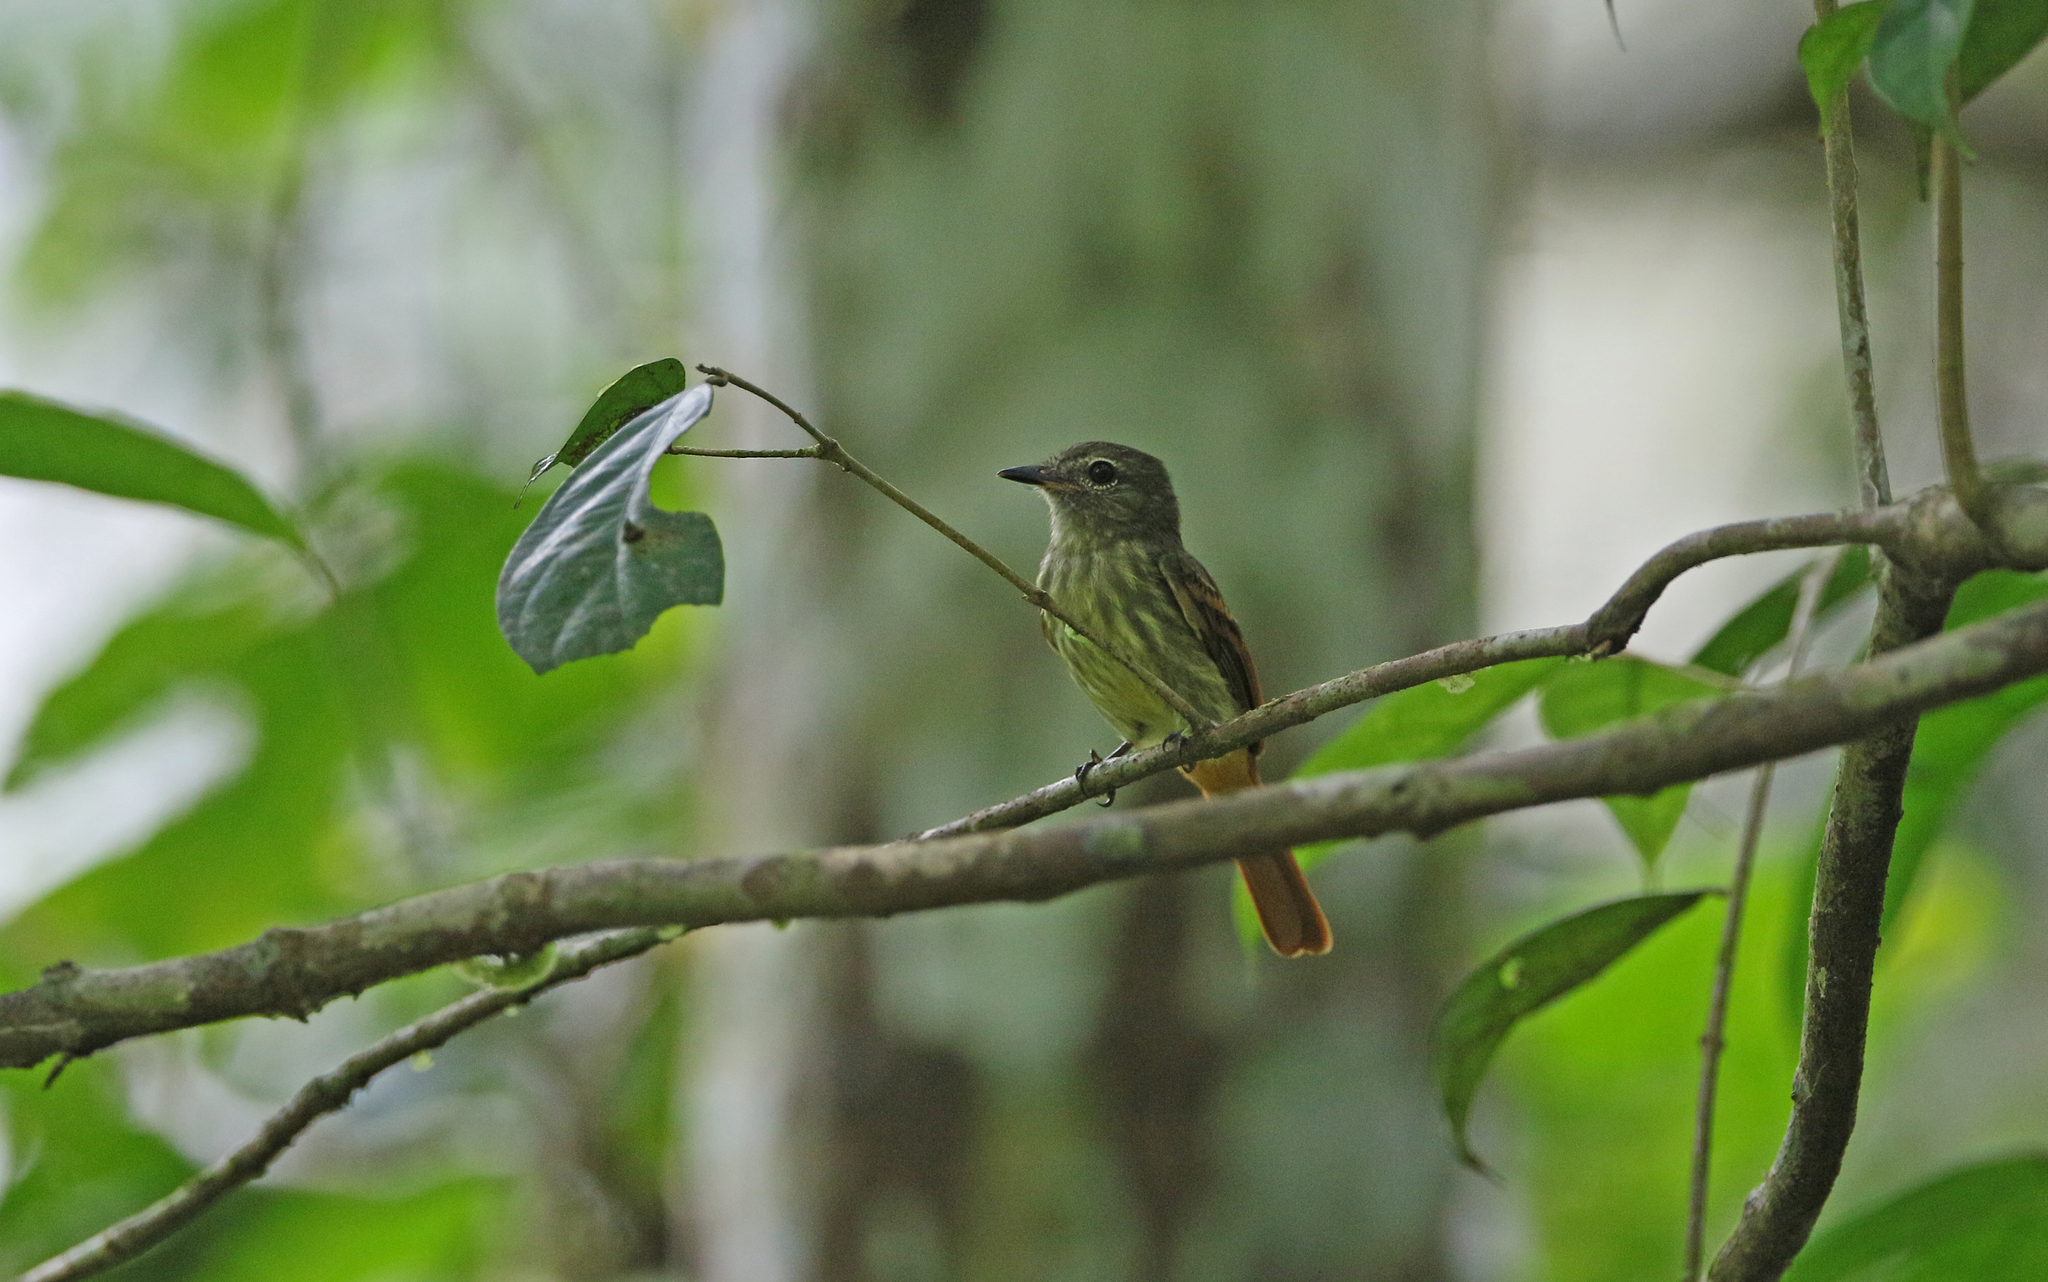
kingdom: Animalia
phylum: Chordata
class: Aves
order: Passeriformes
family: Tyrannidae
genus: Ramphotrigon
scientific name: Ramphotrigon ruficauda
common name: Rufous-tailed flatbill
